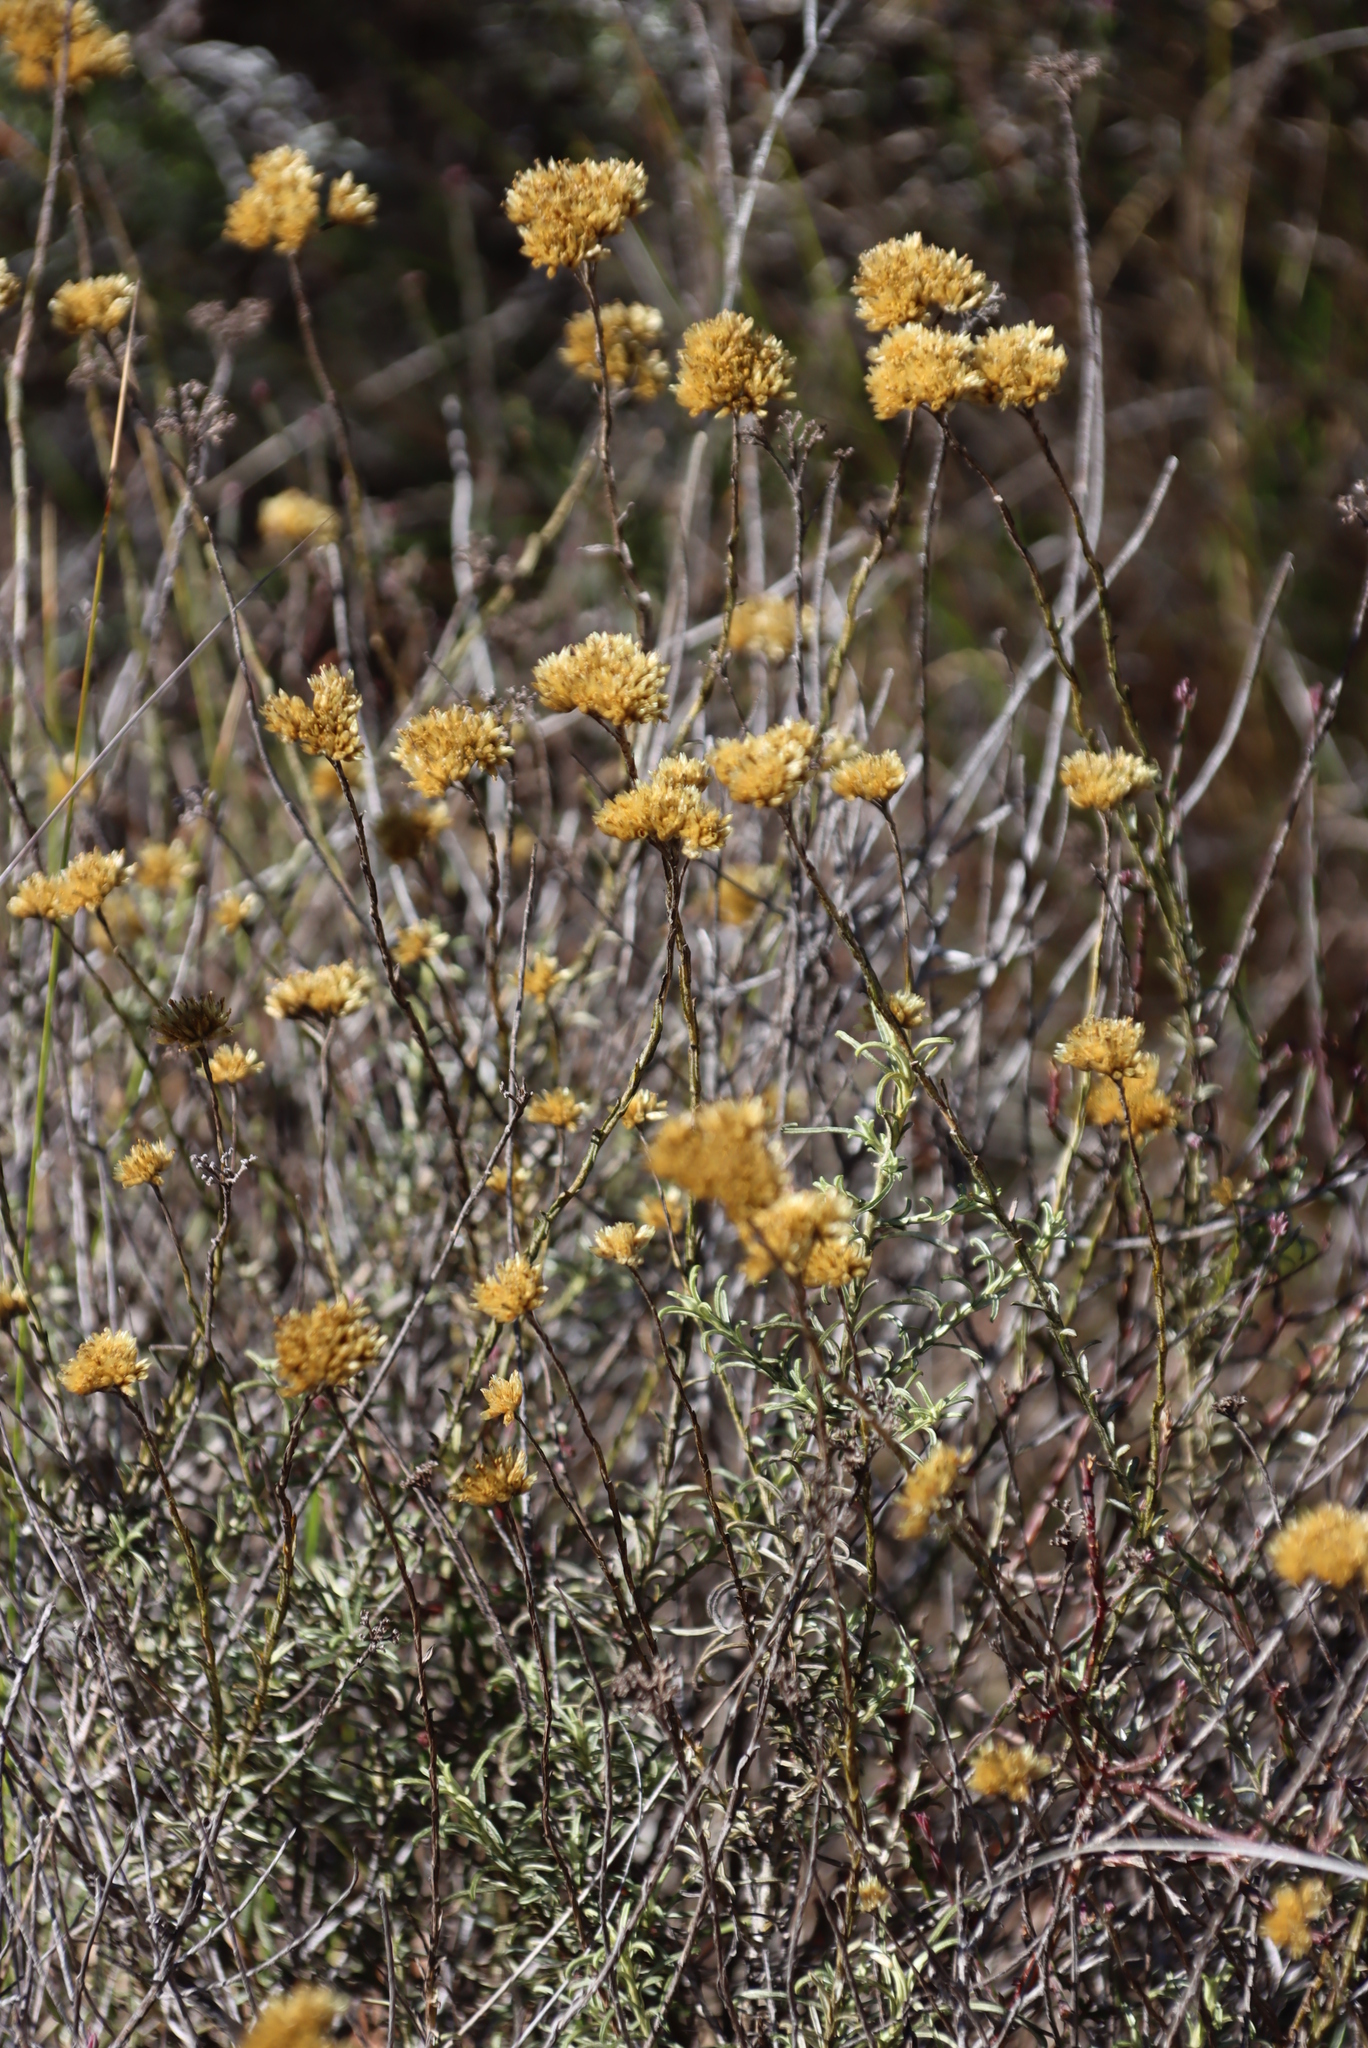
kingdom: Plantae
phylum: Tracheophyta
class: Magnoliopsida
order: Asterales
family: Asteraceae
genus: Helichrysum
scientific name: Helichrysum rutilans
